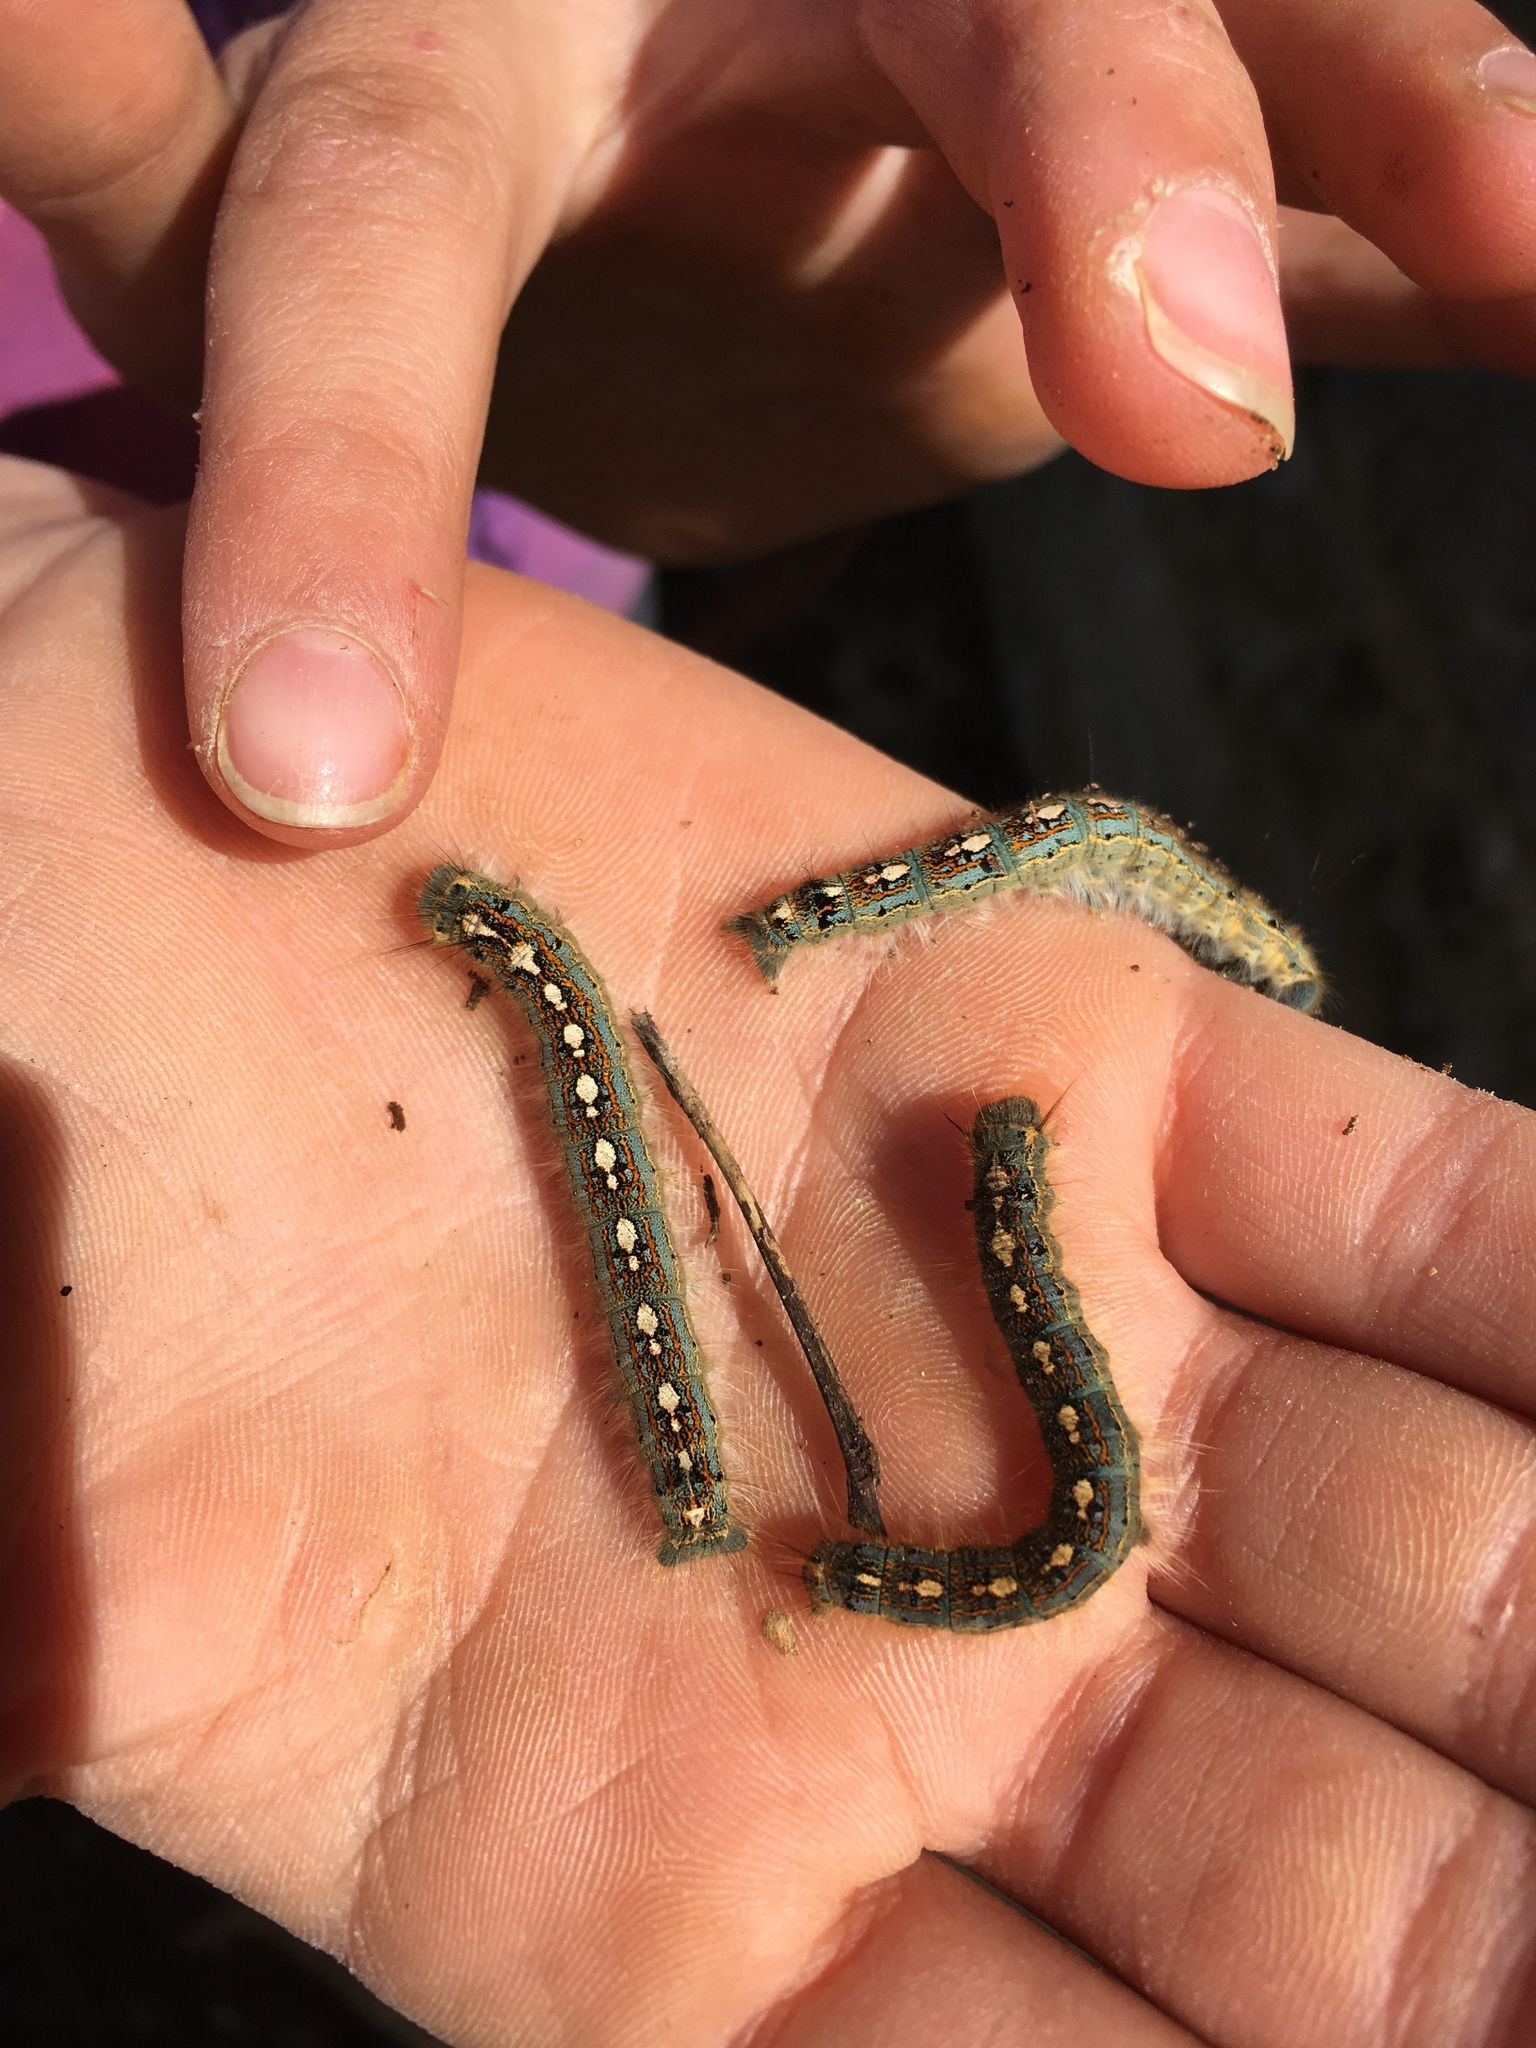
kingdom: Animalia
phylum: Arthropoda
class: Insecta
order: Lepidoptera
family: Lasiocampidae
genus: Malacosoma
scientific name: Malacosoma disstria
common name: Forest tent caterpillar
